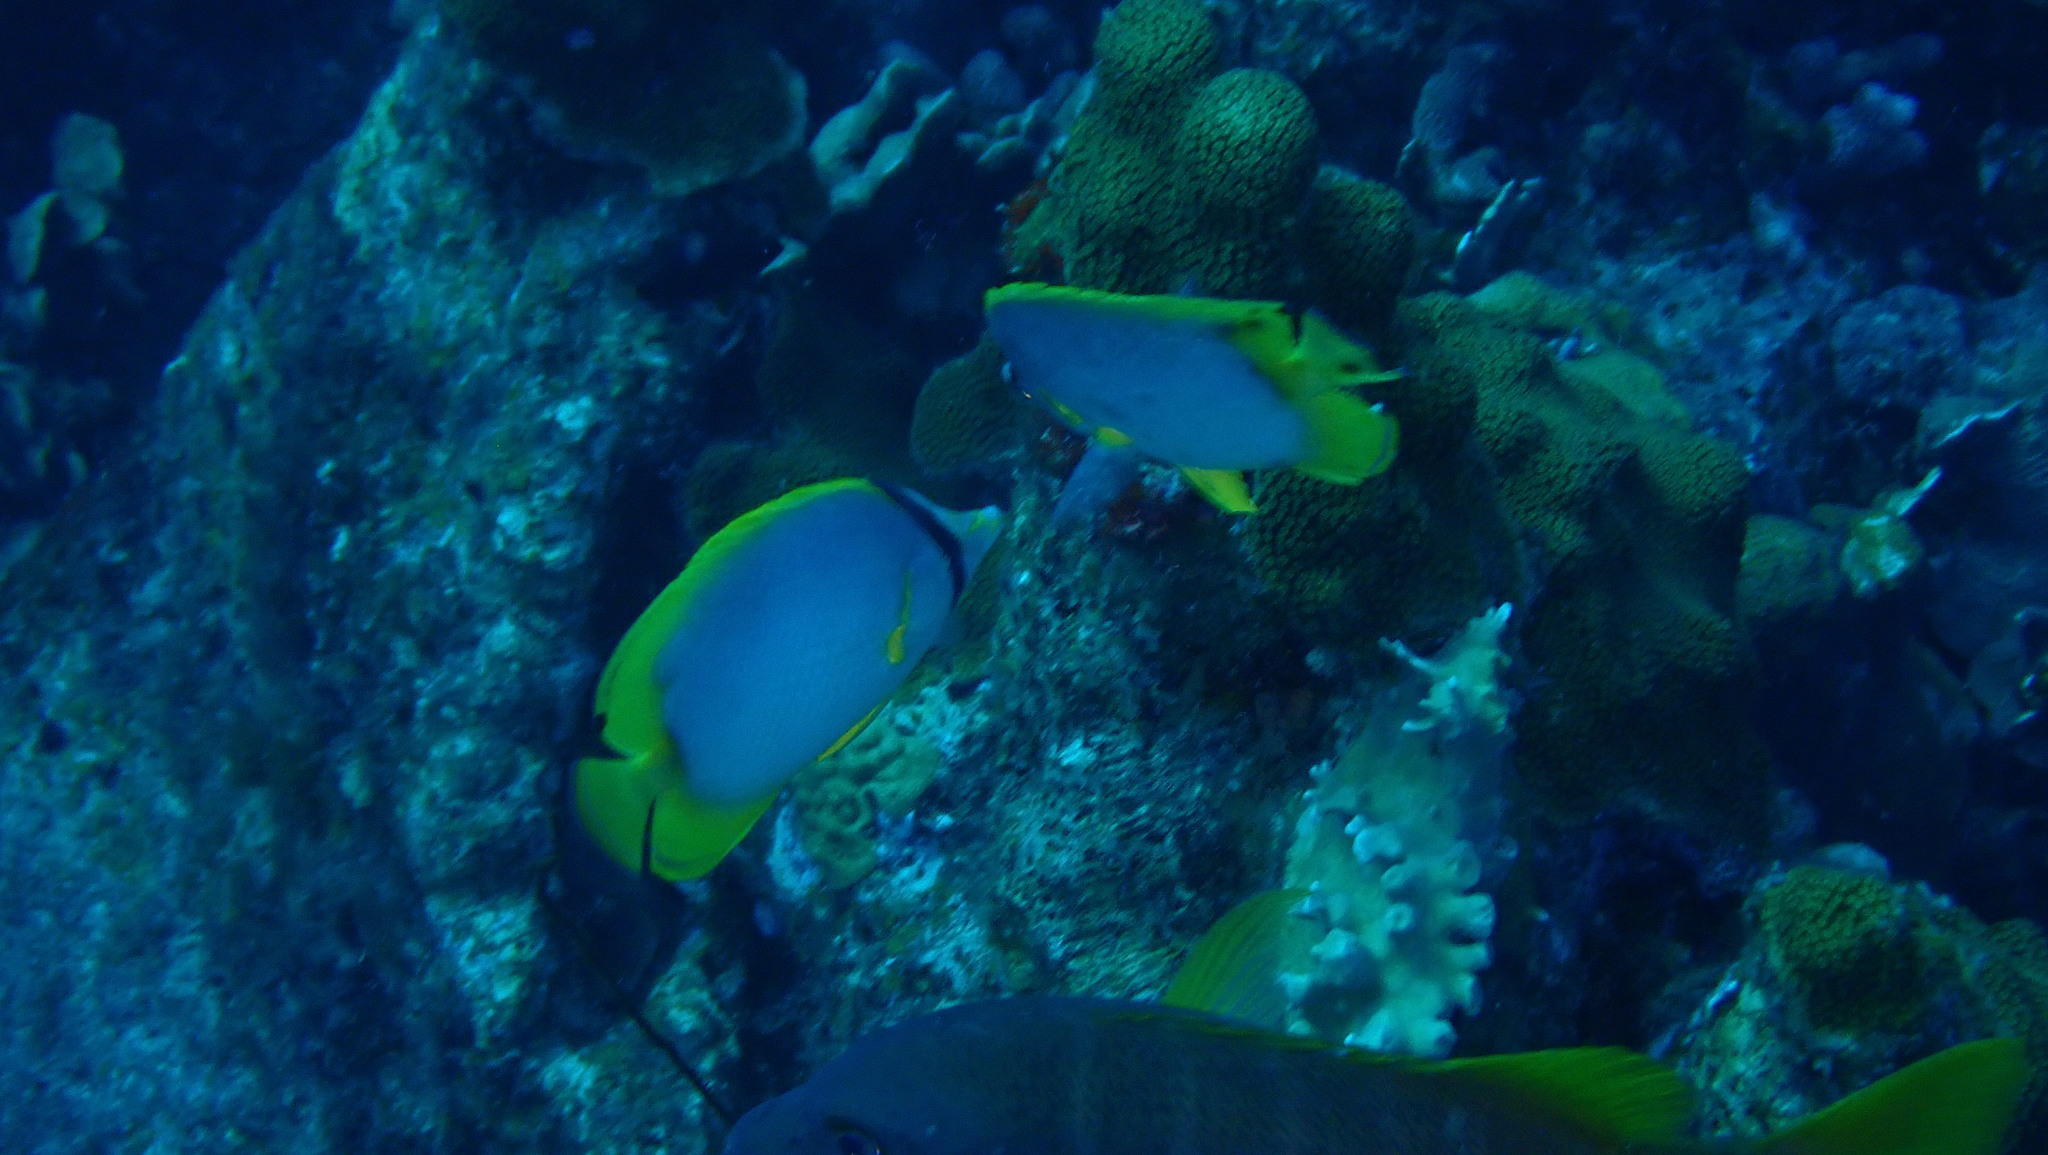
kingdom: Animalia
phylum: Chordata
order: Perciformes
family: Chaetodontidae
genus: Chaetodon
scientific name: Chaetodon ocellatus
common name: Spotfin butterflyfish
